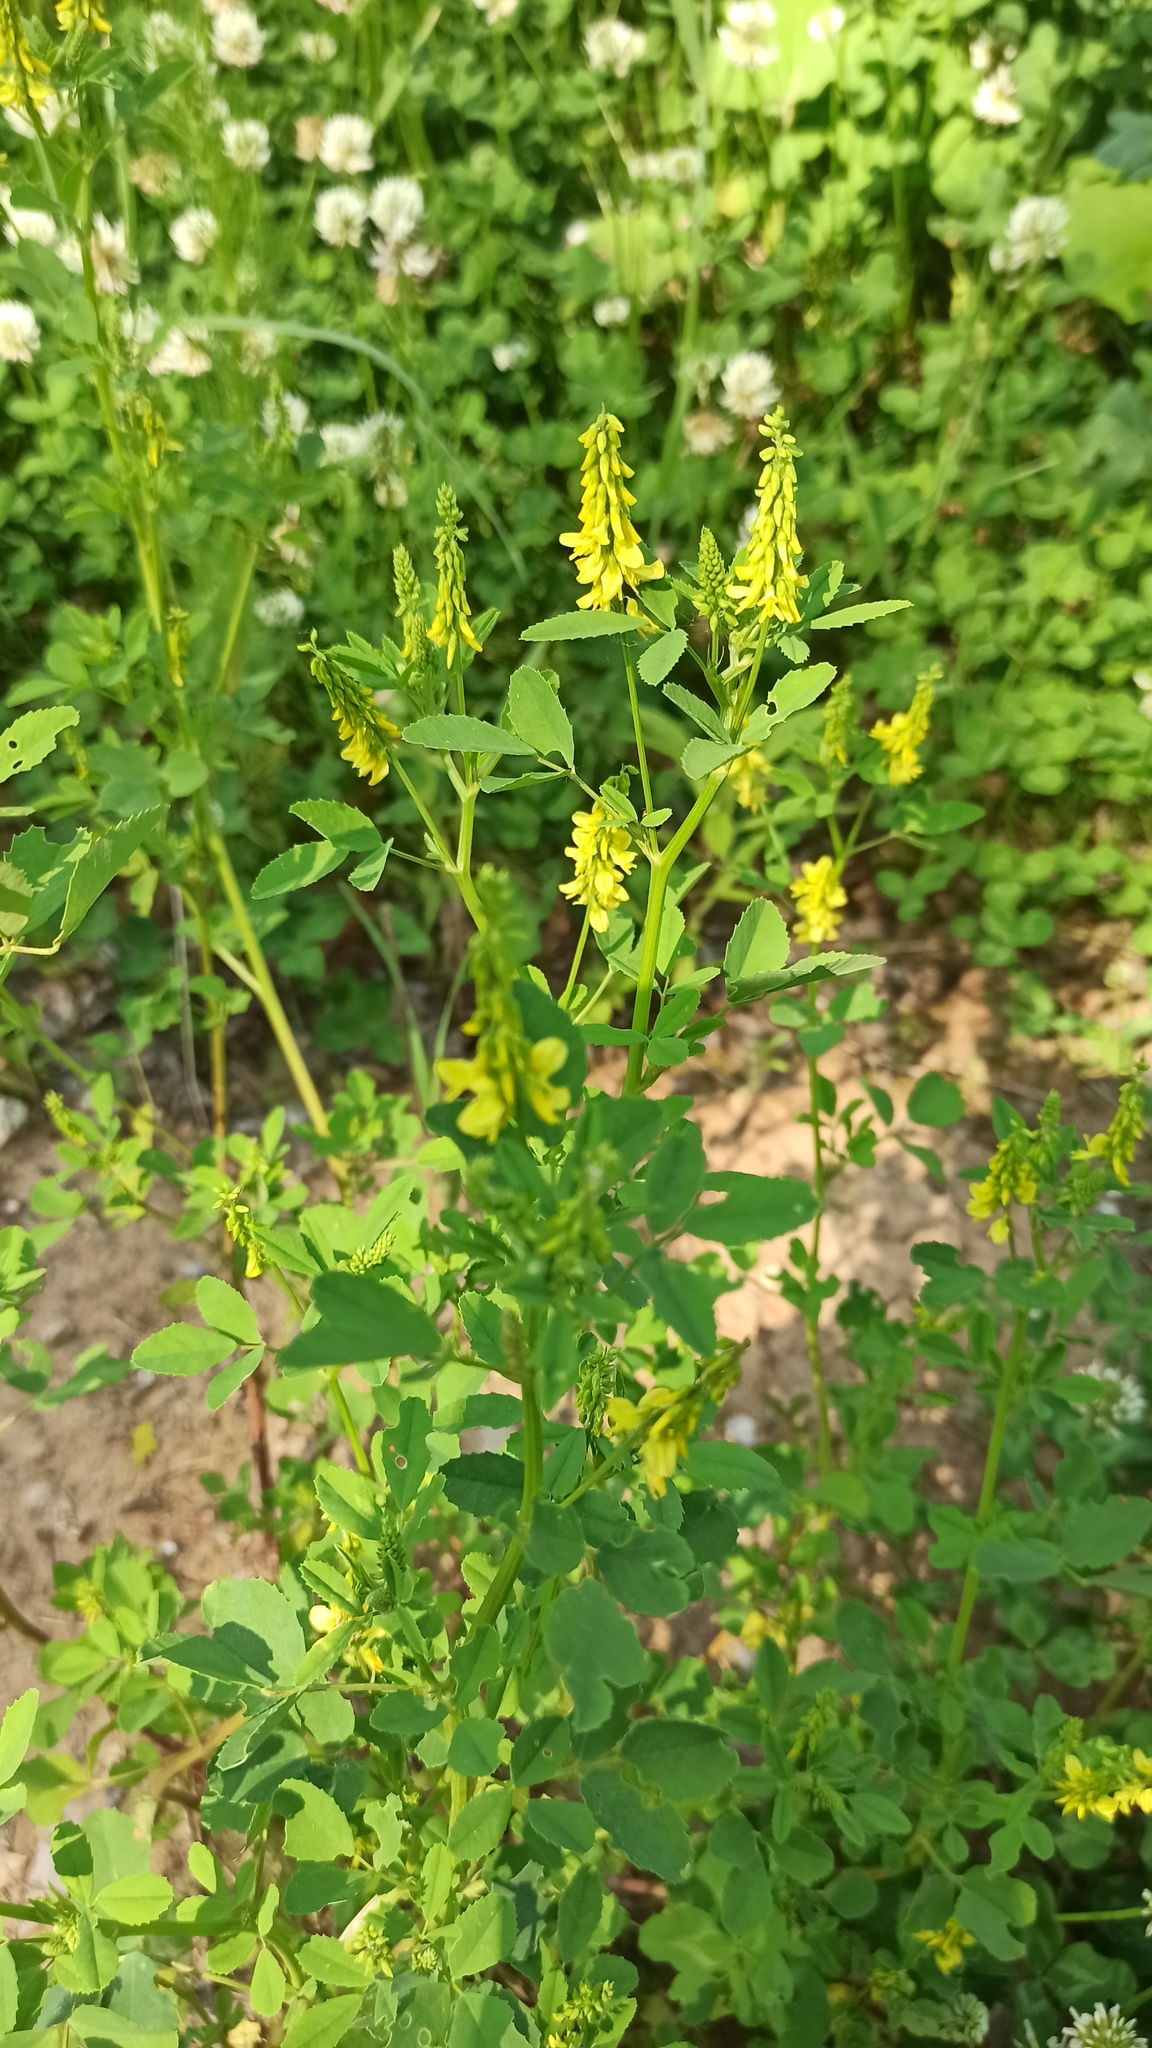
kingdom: Plantae
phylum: Tracheophyta
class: Magnoliopsida
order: Fabales
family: Fabaceae
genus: Melilotus
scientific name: Melilotus officinalis
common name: Sweetclover
